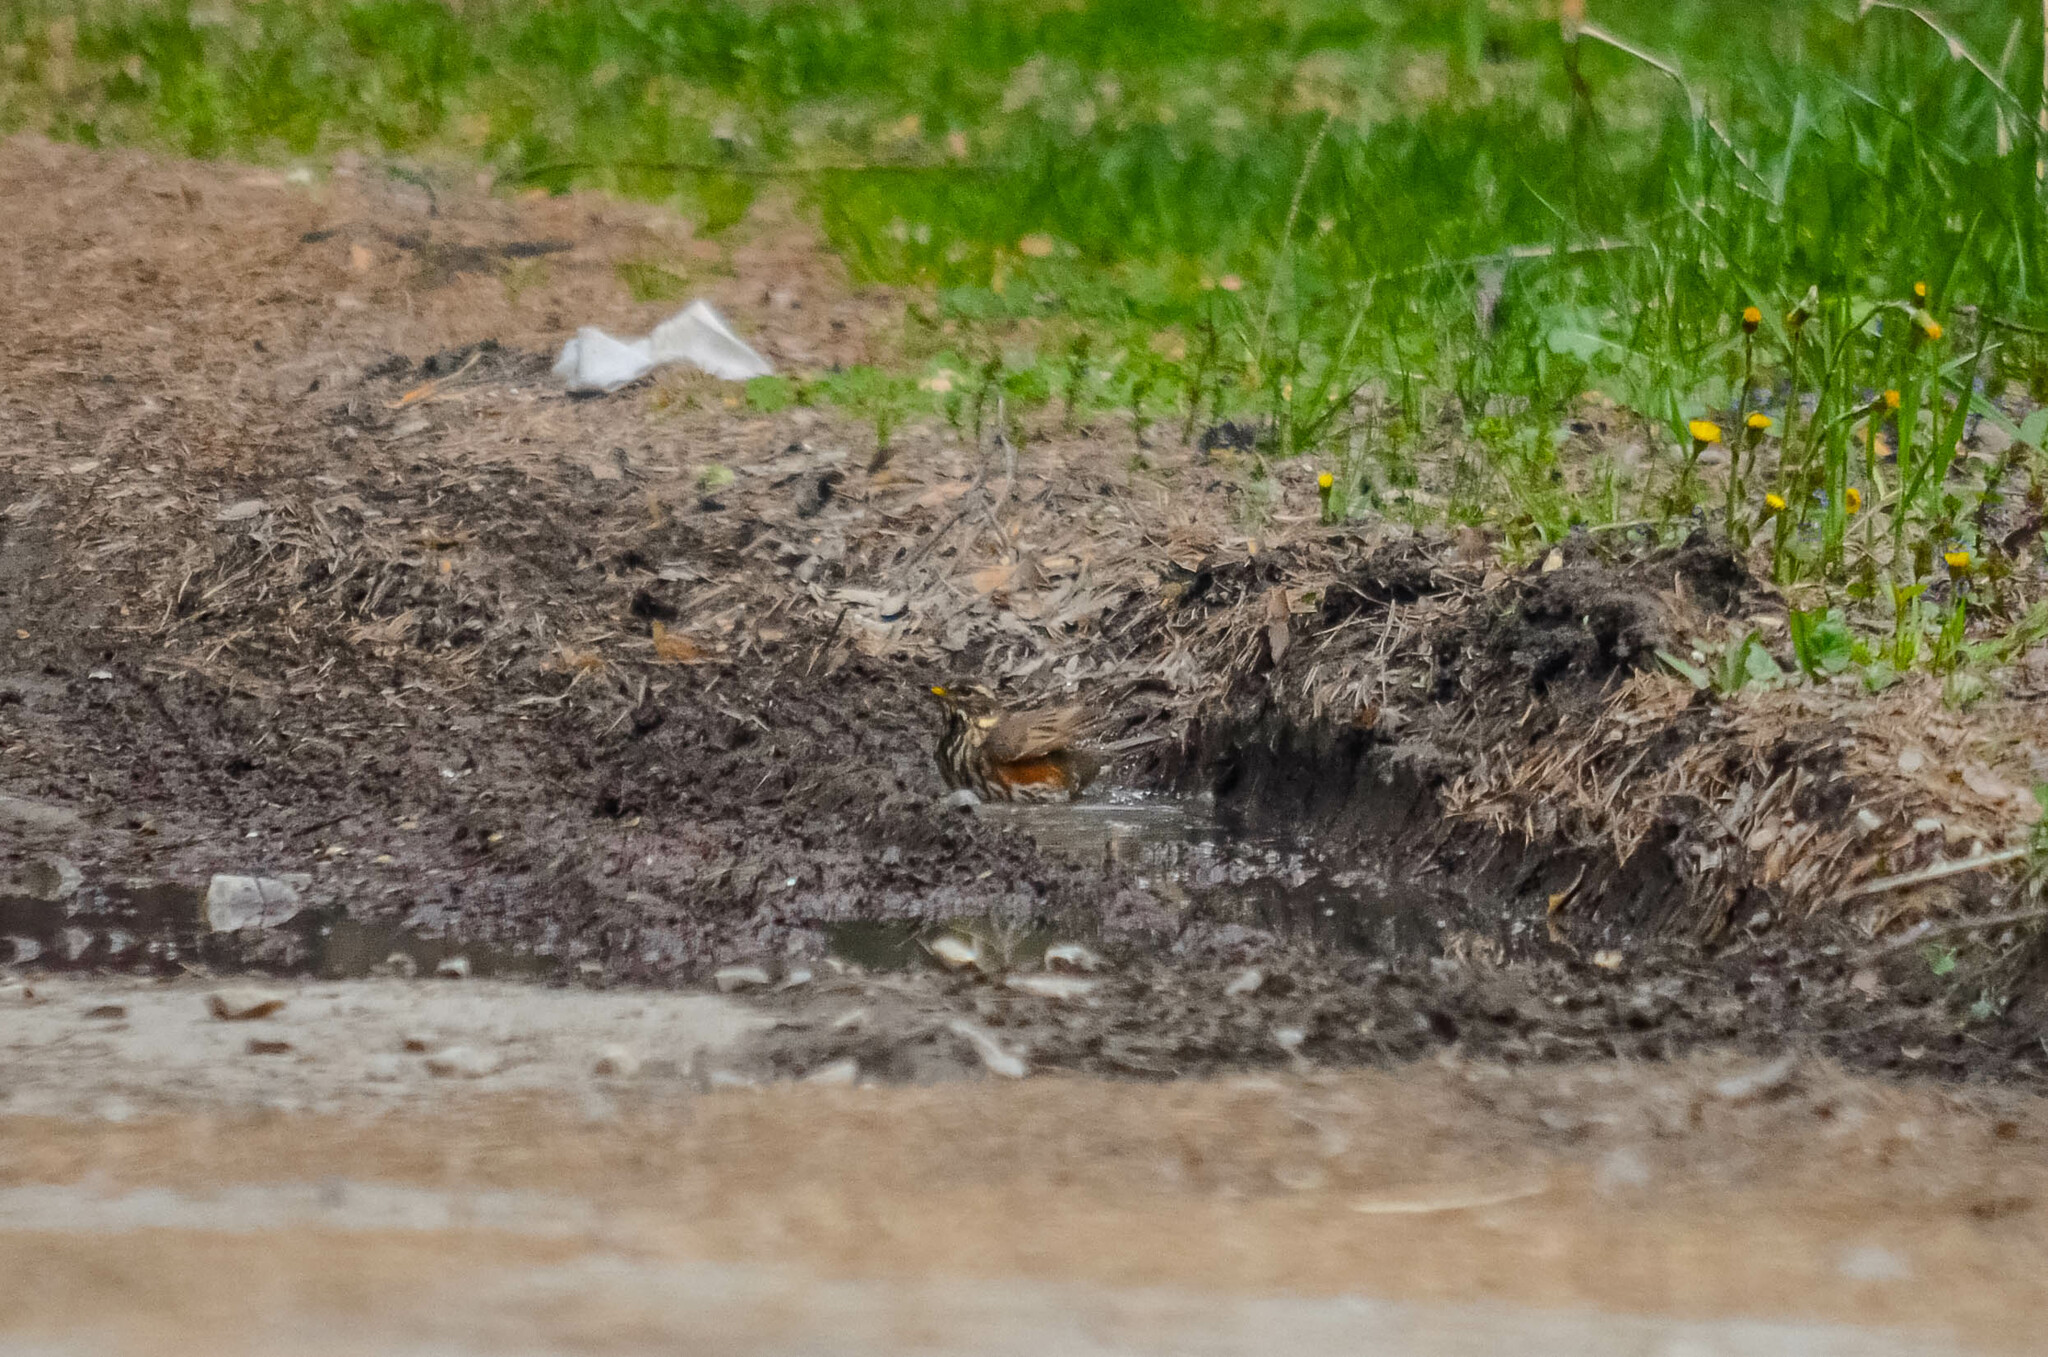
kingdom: Animalia
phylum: Chordata
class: Aves
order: Passeriformes
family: Turdidae
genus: Turdus
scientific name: Turdus iliacus
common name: Redwing
